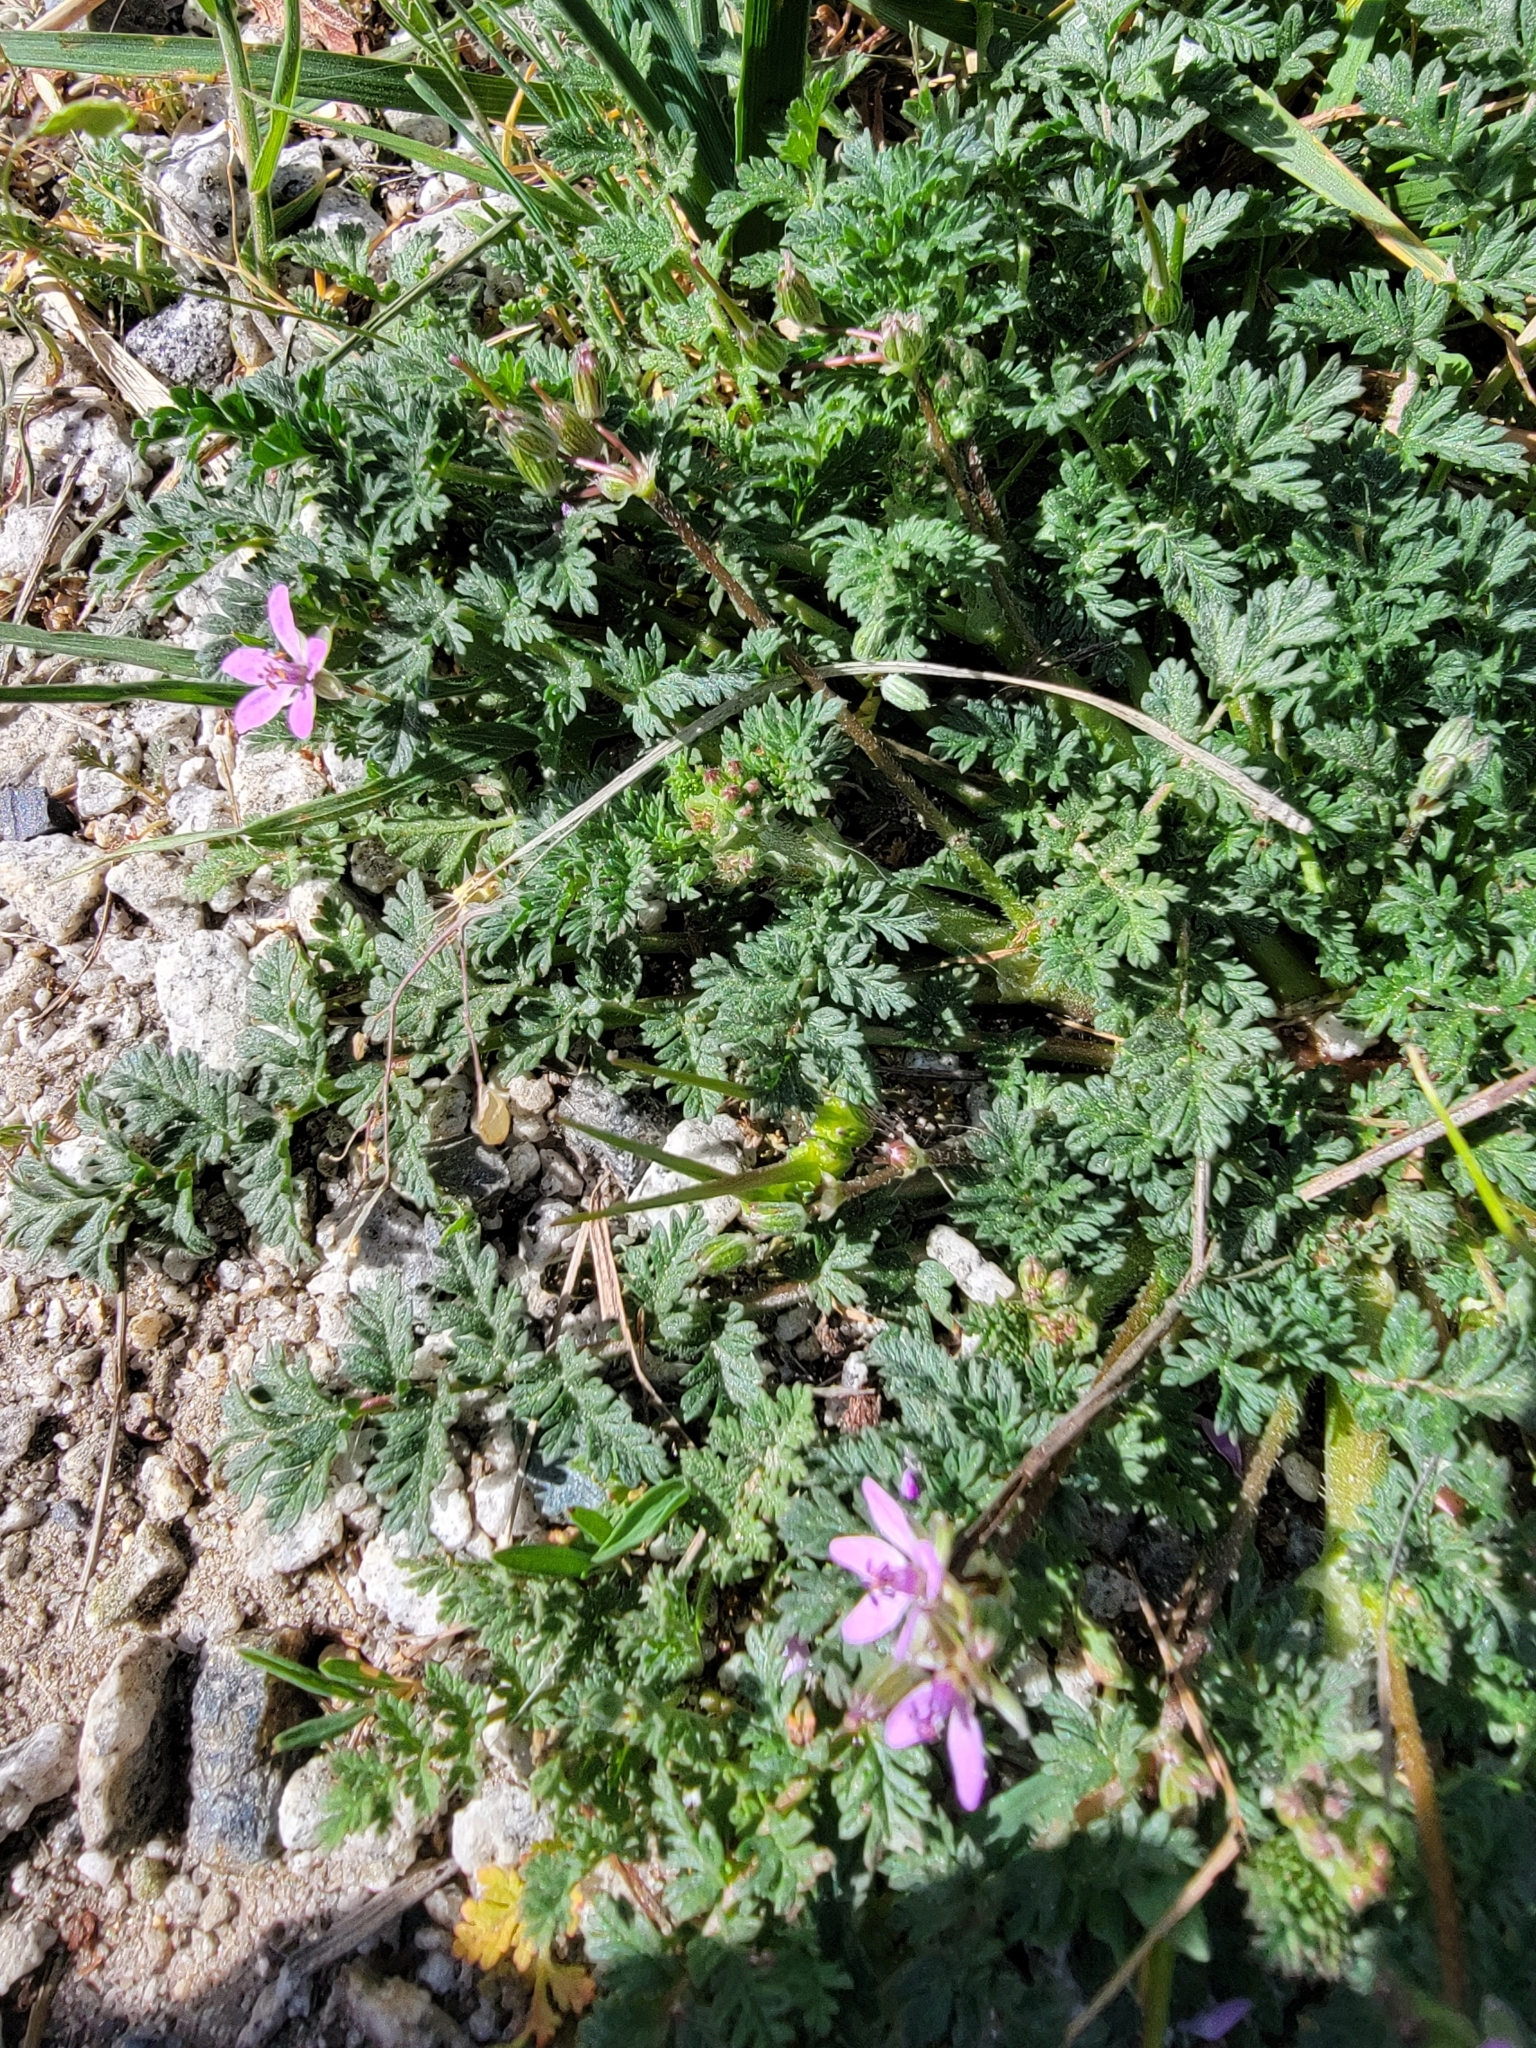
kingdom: Plantae
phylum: Tracheophyta
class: Magnoliopsida
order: Geraniales
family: Geraniaceae
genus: Erodium
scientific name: Erodium cicutarium
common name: Common stork's-bill
